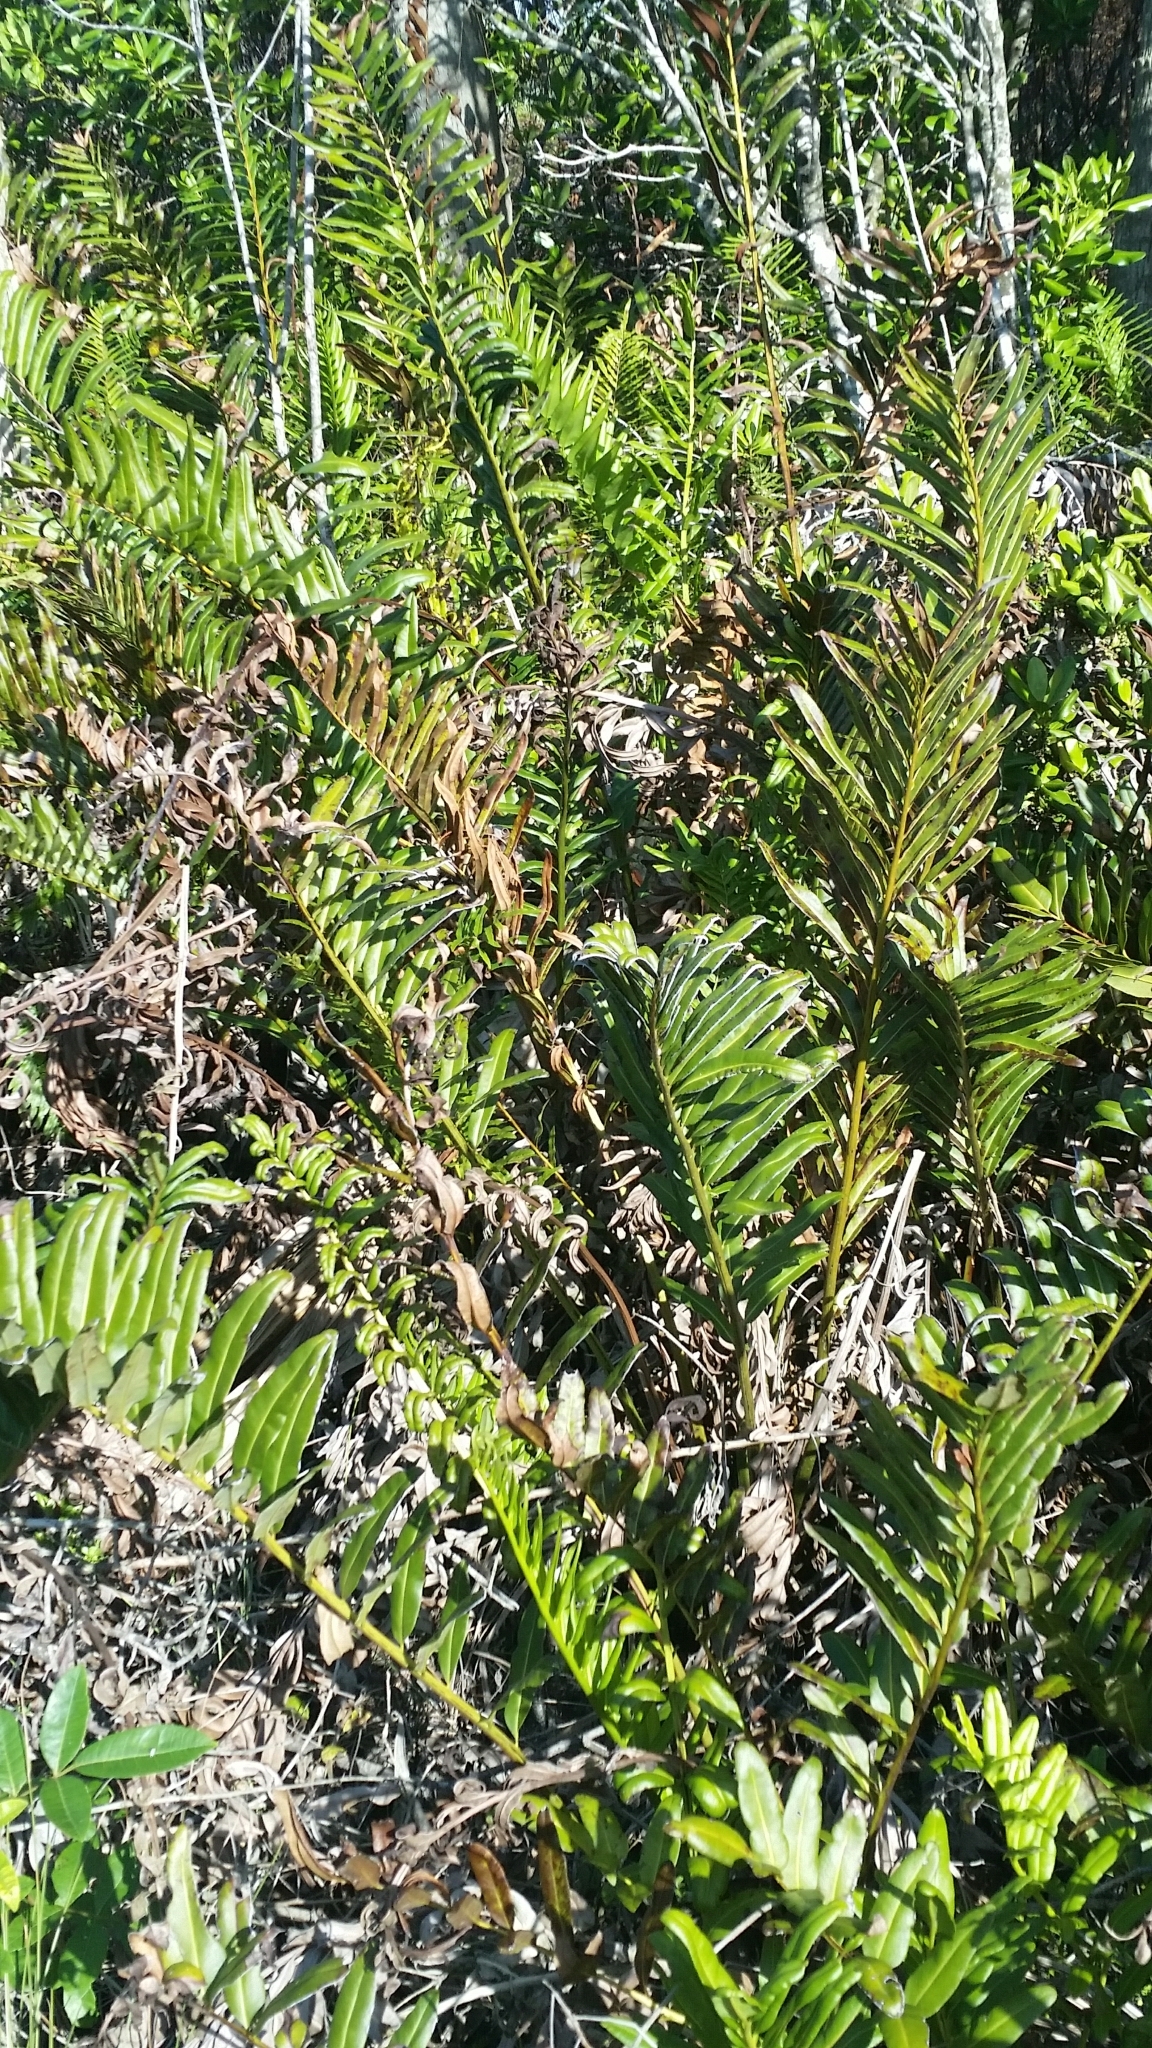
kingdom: Plantae
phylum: Tracheophyta
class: Polypodiopsida
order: Polypodiales
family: Pteridaceae
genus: Acrostichum
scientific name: Acrostichum danaeifolium
